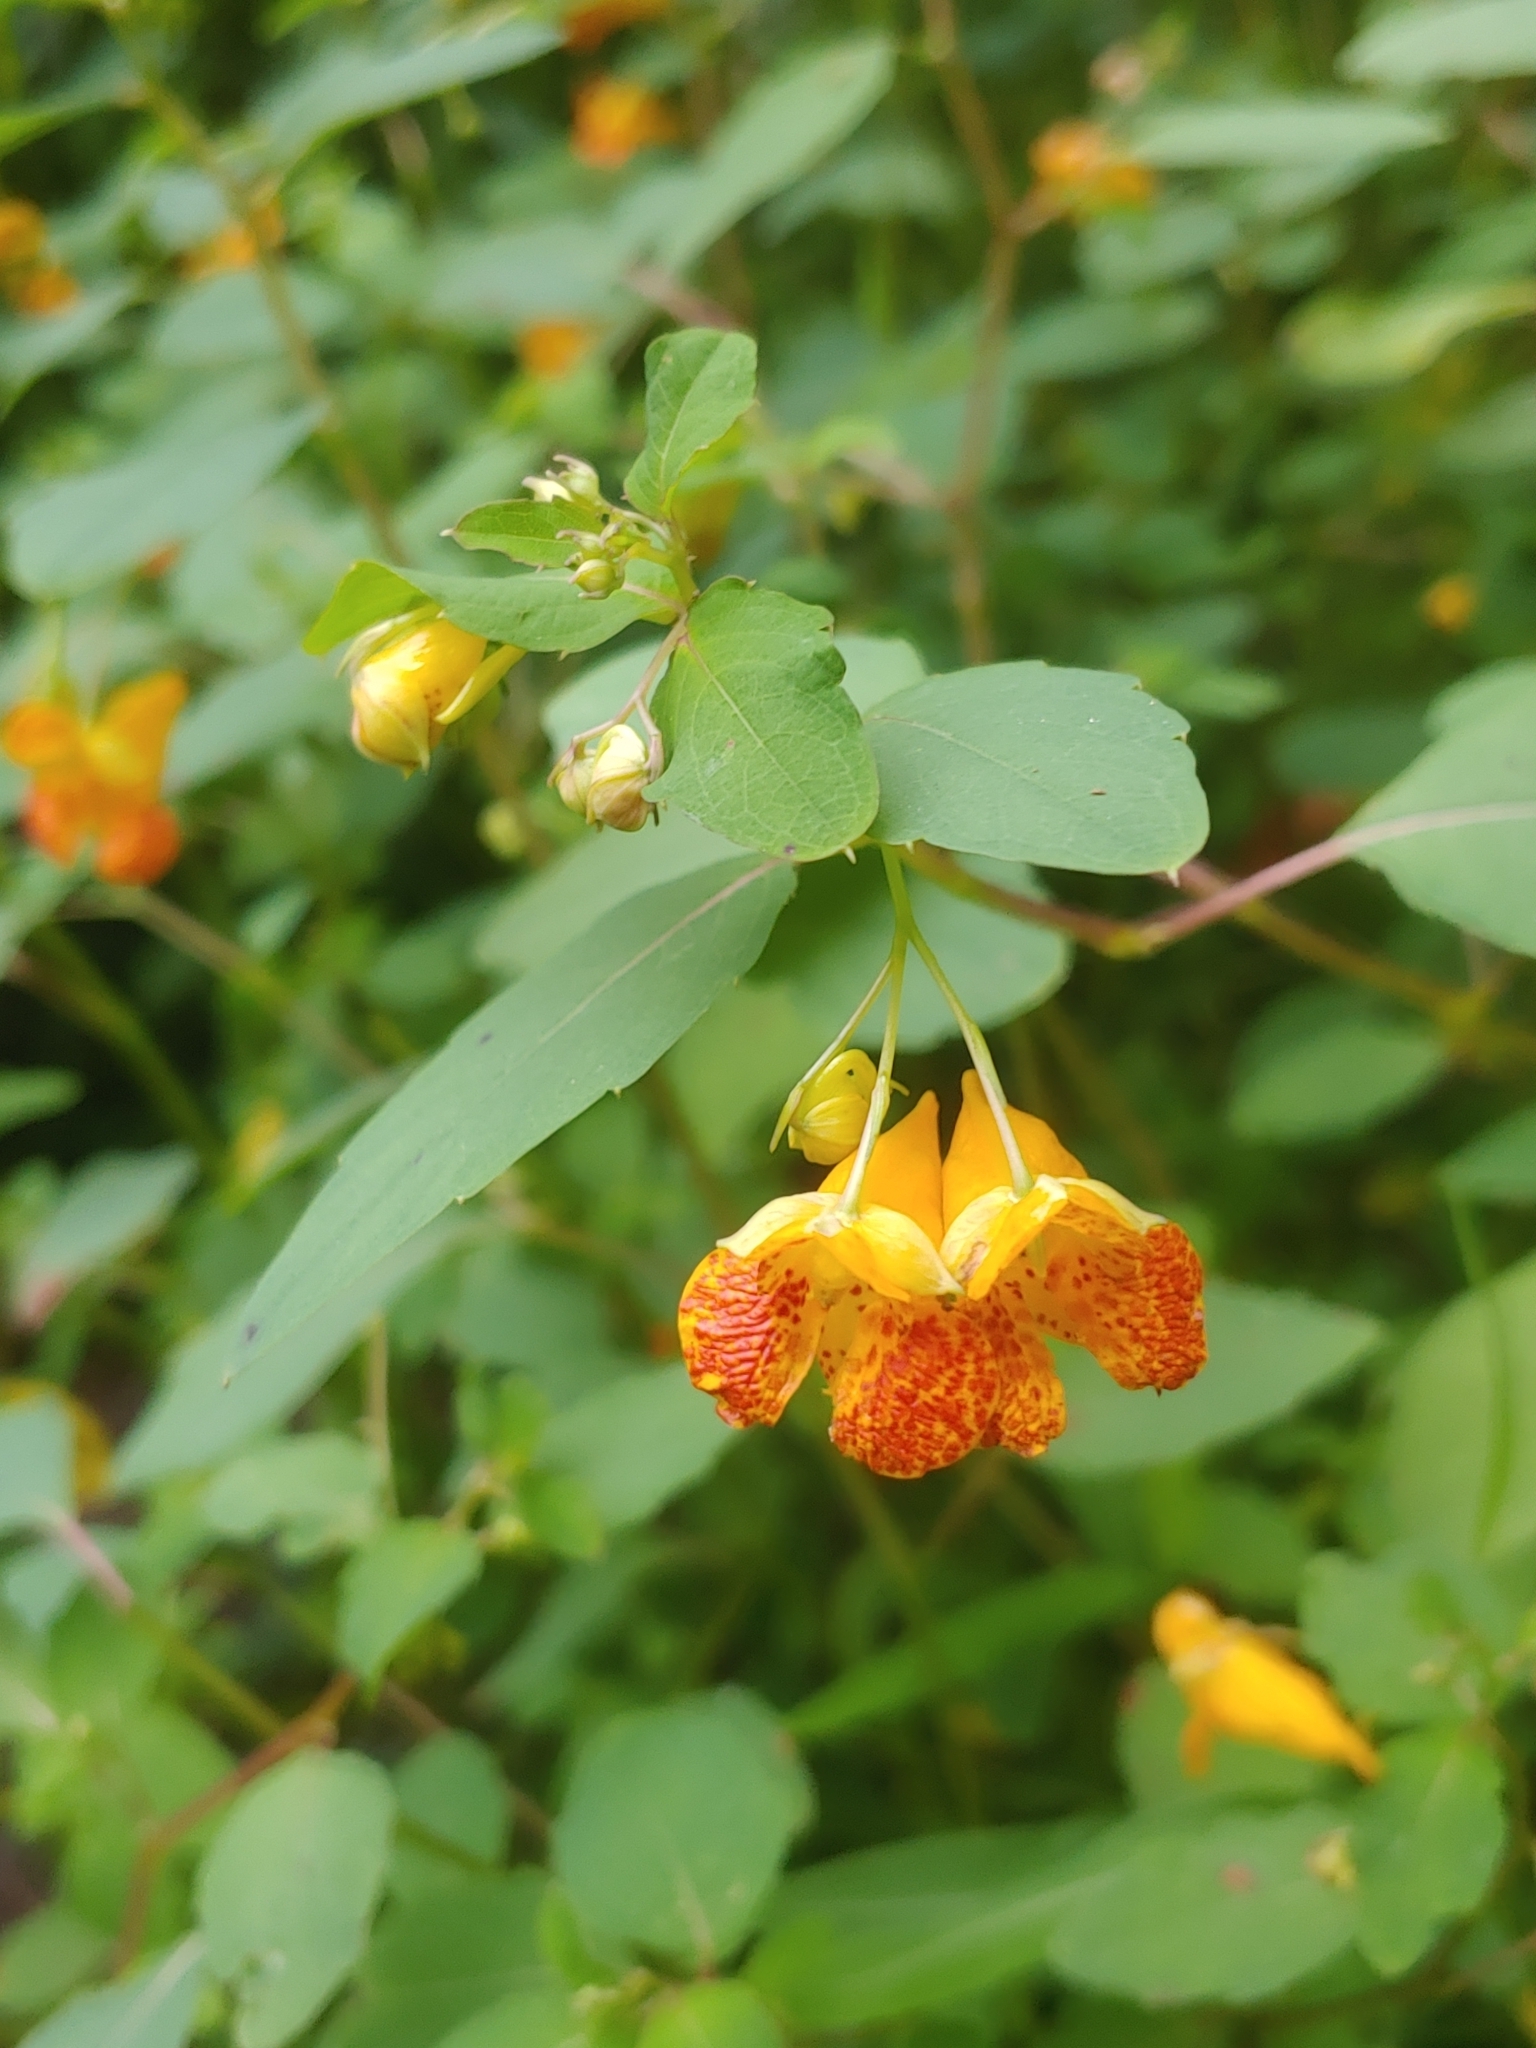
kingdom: Plantae
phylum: Tracheophyta
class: Magnoliopsida
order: Ericales
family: Balsaminaceae
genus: Impatiens
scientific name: Impatiens capensis
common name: Orange balsam
